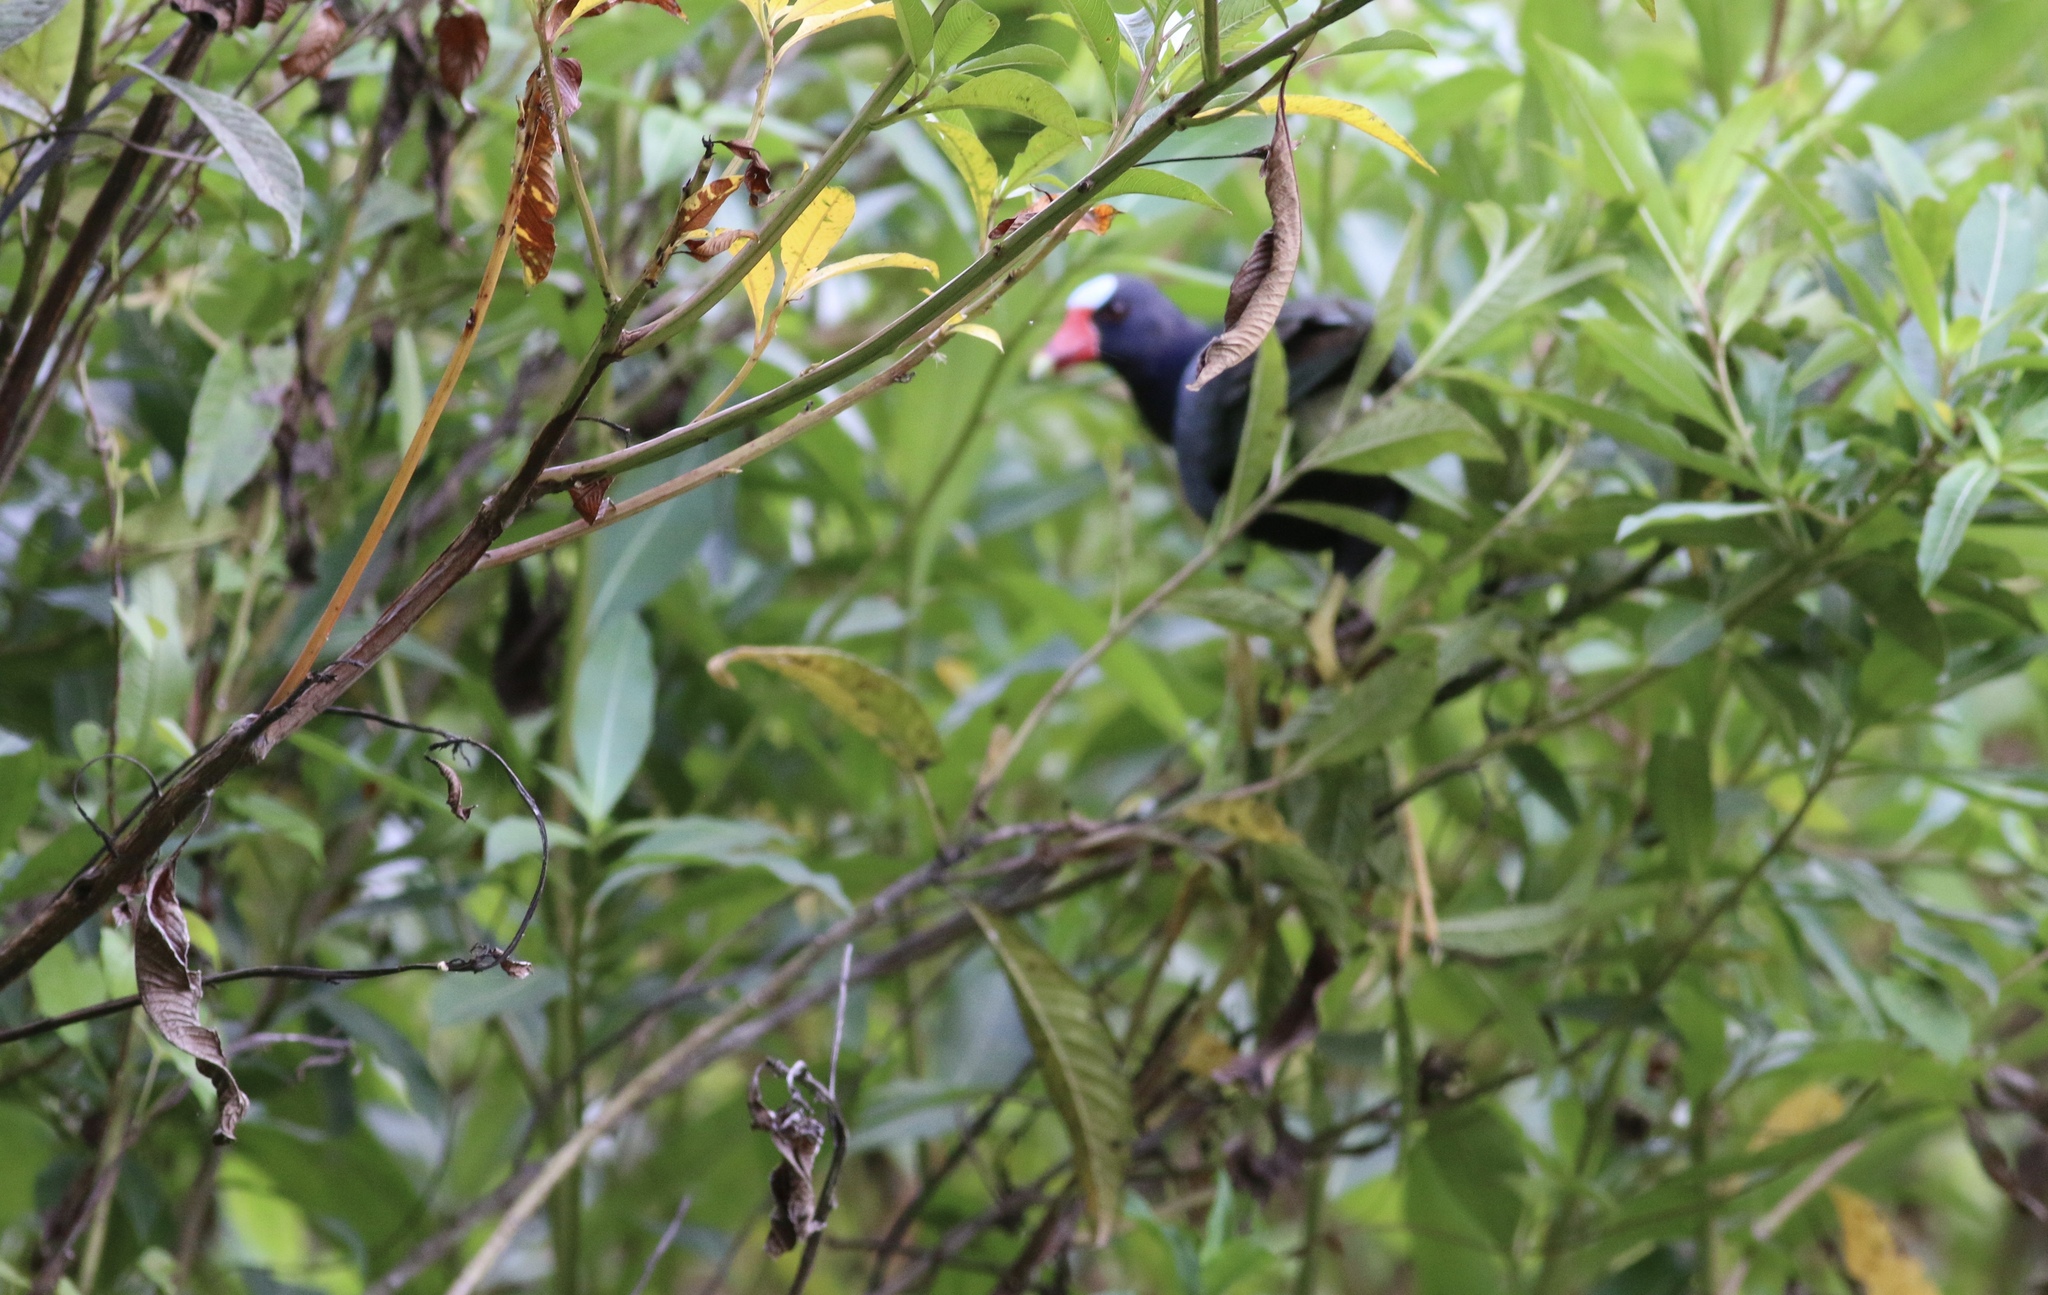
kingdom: Animalia
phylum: Chordata
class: Aves
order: Gruiformes
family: Rallidae
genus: Porphyrio
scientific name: Porphyrio martinica
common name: Purple gallinule
